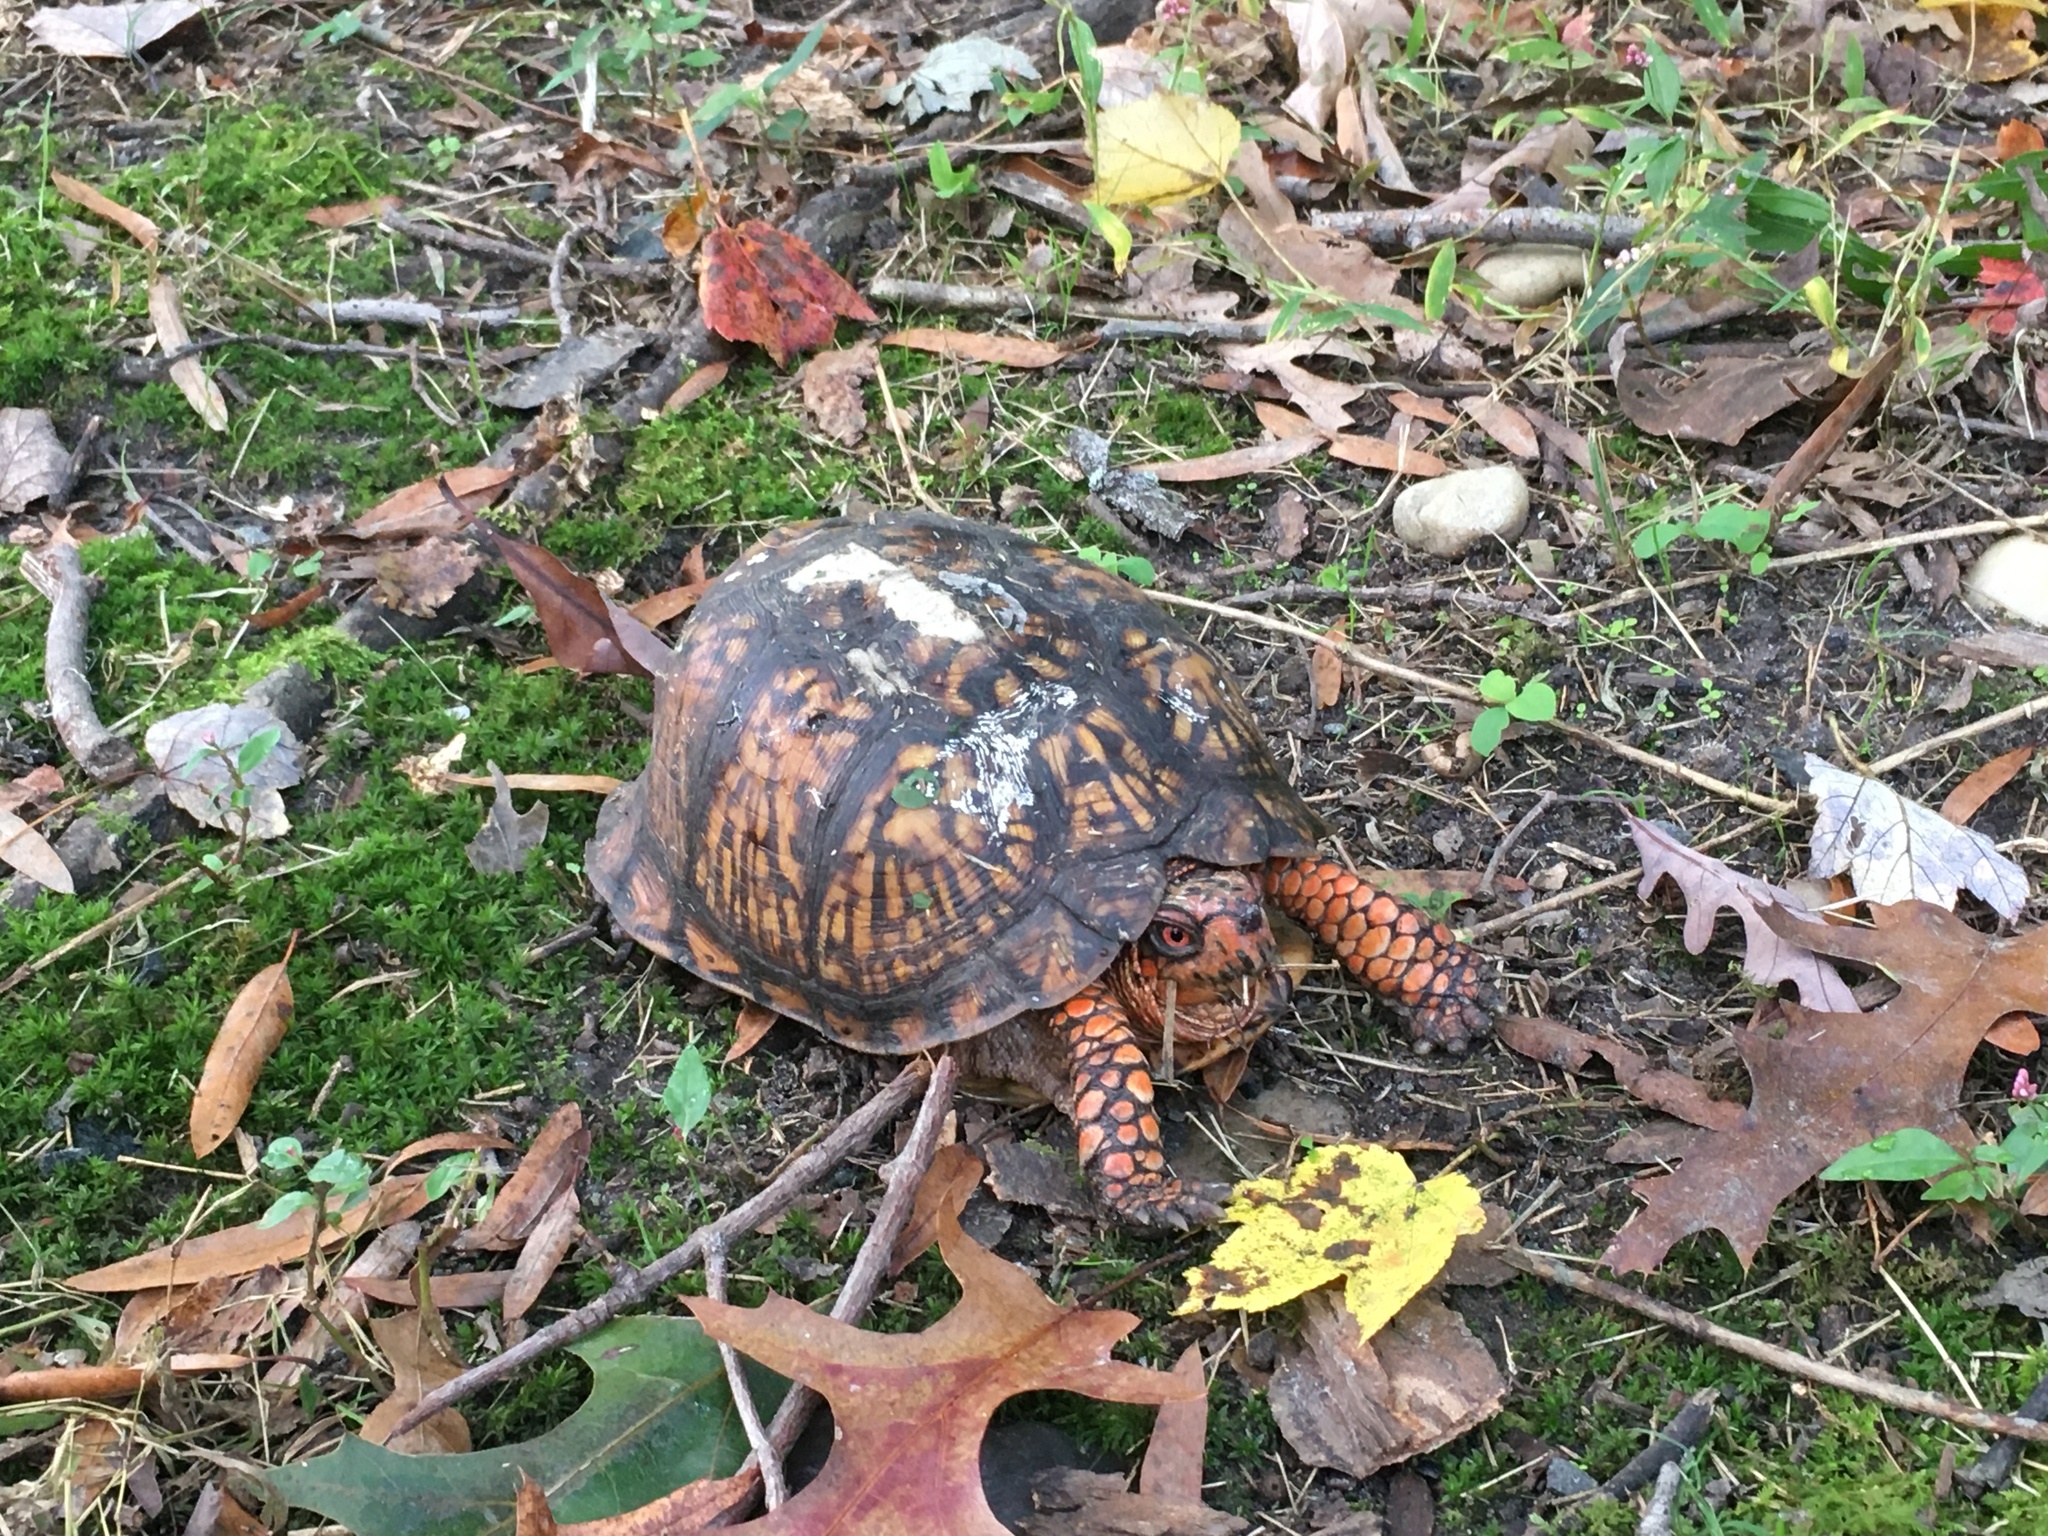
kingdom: Animalia
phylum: Chordata
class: Testudines
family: Emydidae
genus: Terrapene
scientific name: Terrapene carolina
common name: Common box turtle
